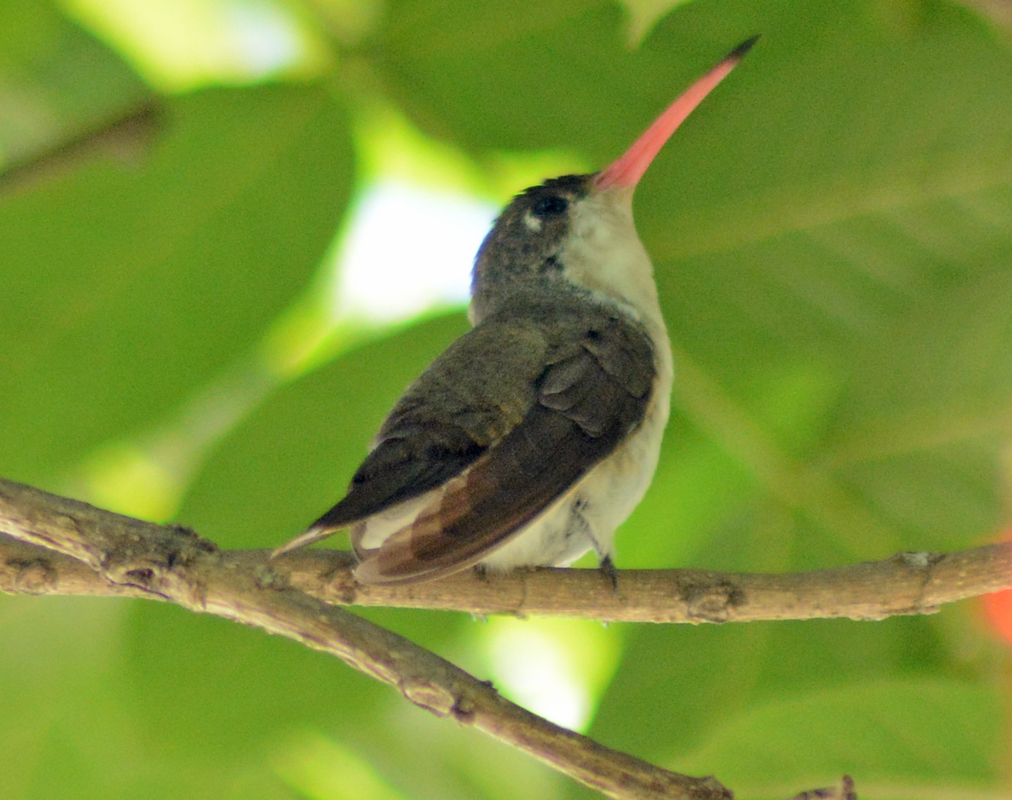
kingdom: Animalia
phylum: Chordata
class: Aves
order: Apodiformes
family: Trochilidae
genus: Leucolia
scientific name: Leucolia violiceps
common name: Violet-crowned hummingbird
